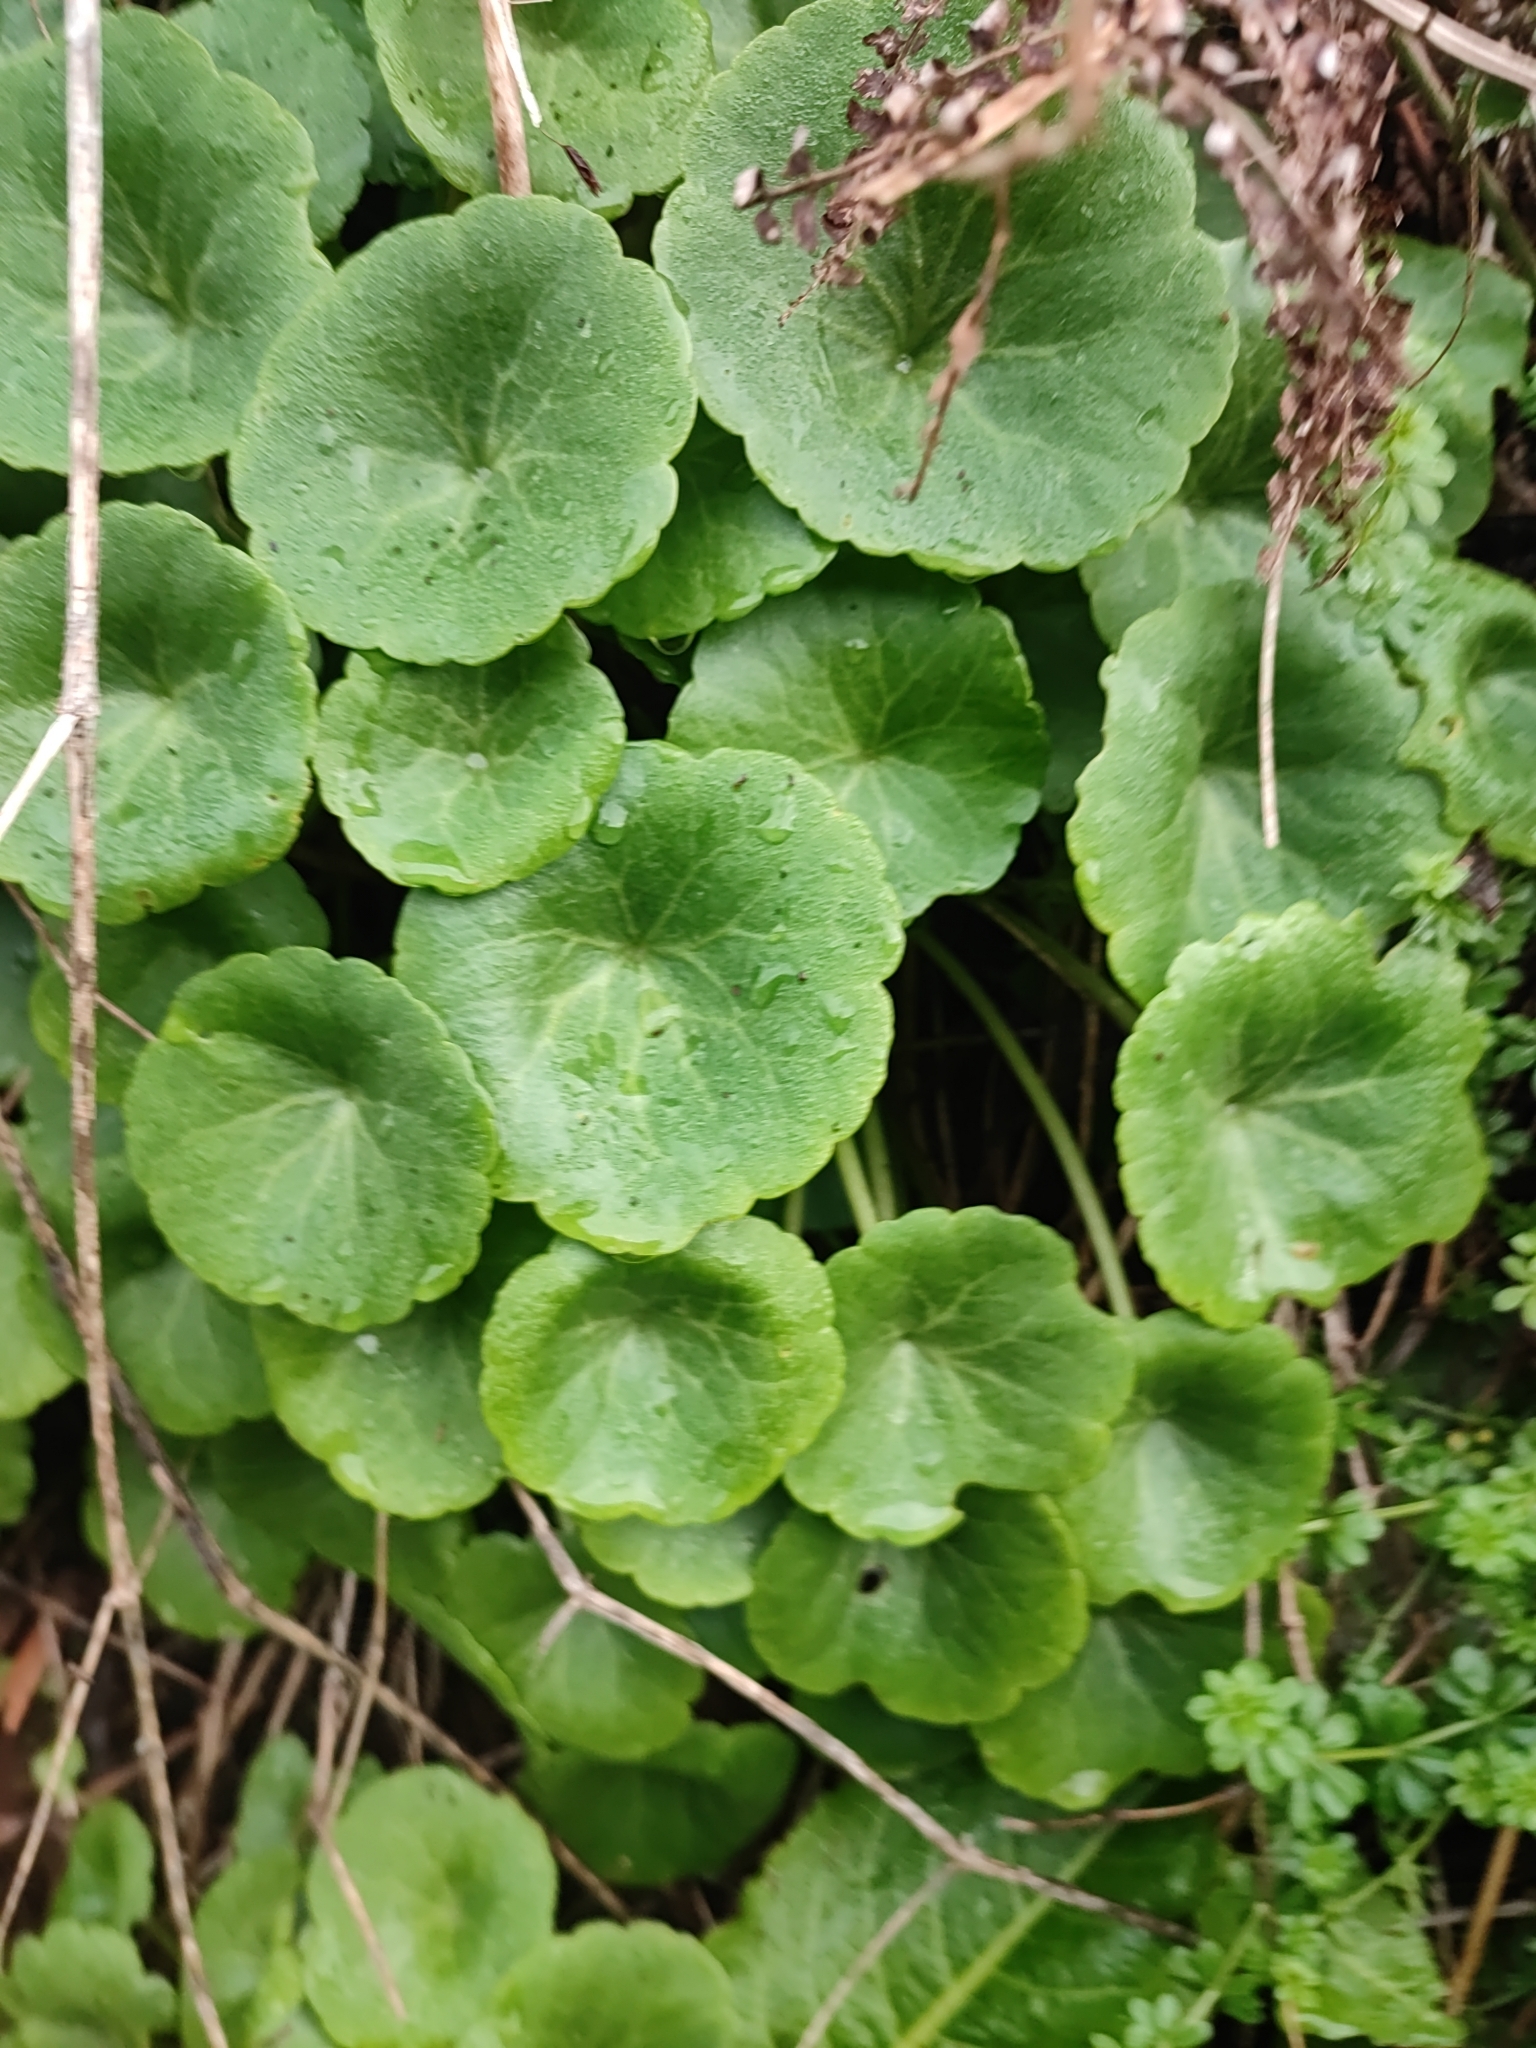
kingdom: Plantae
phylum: Tracheophyta
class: Magnoliopsida
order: Saxifragales
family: Crassulaceae
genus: Umbilicus
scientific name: Umbilicus rupestris
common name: Navelwort
